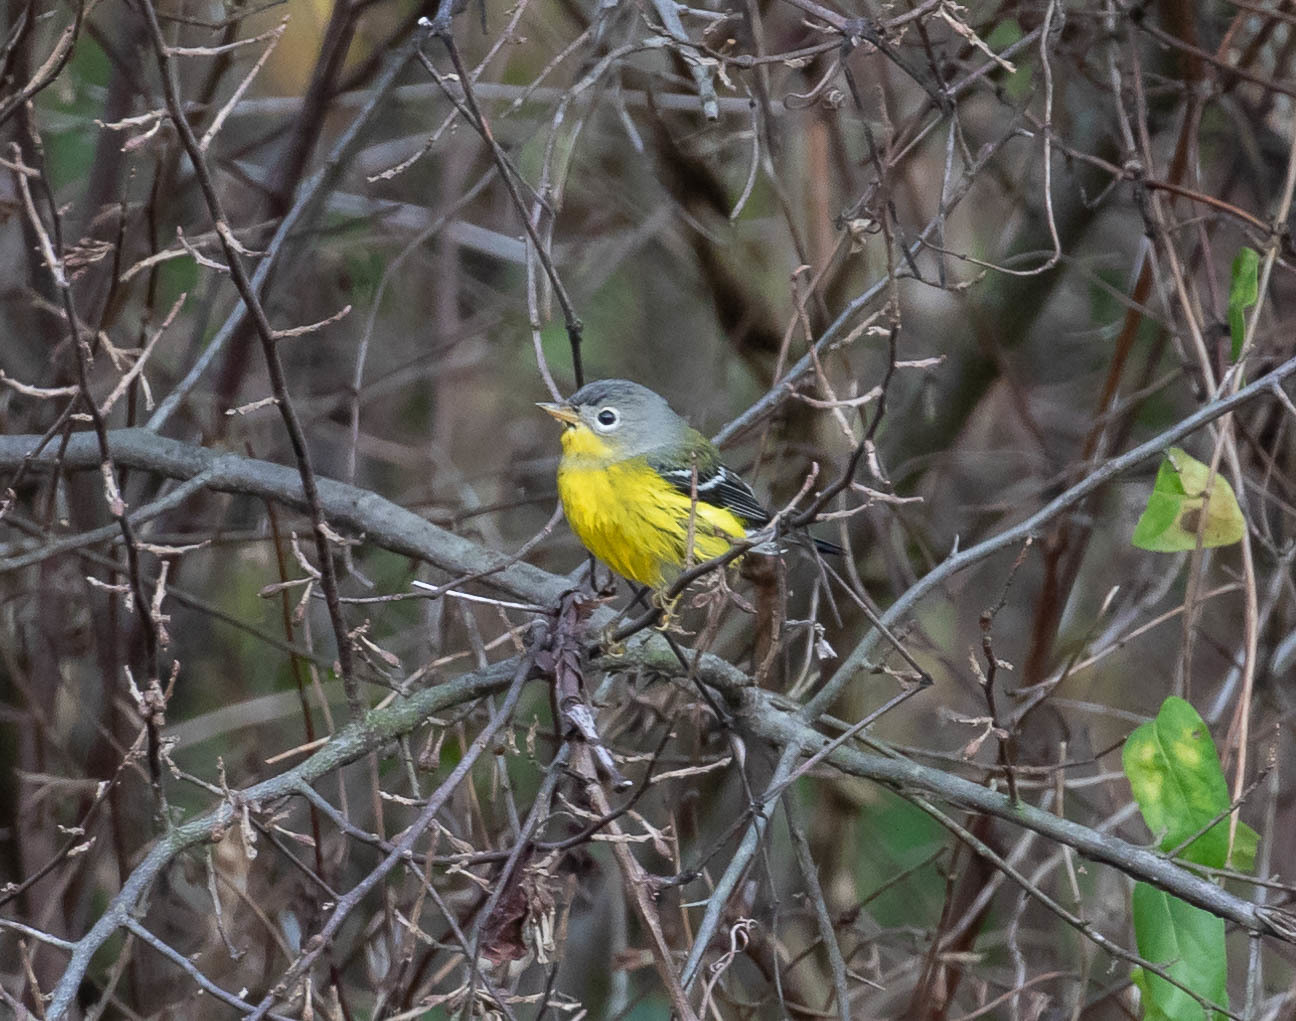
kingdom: Animalia
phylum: Chordata
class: Aves
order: Passeriformes
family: Parulidae
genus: Setophaga
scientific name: Setophaga magnolia
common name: Magnolia warbler
